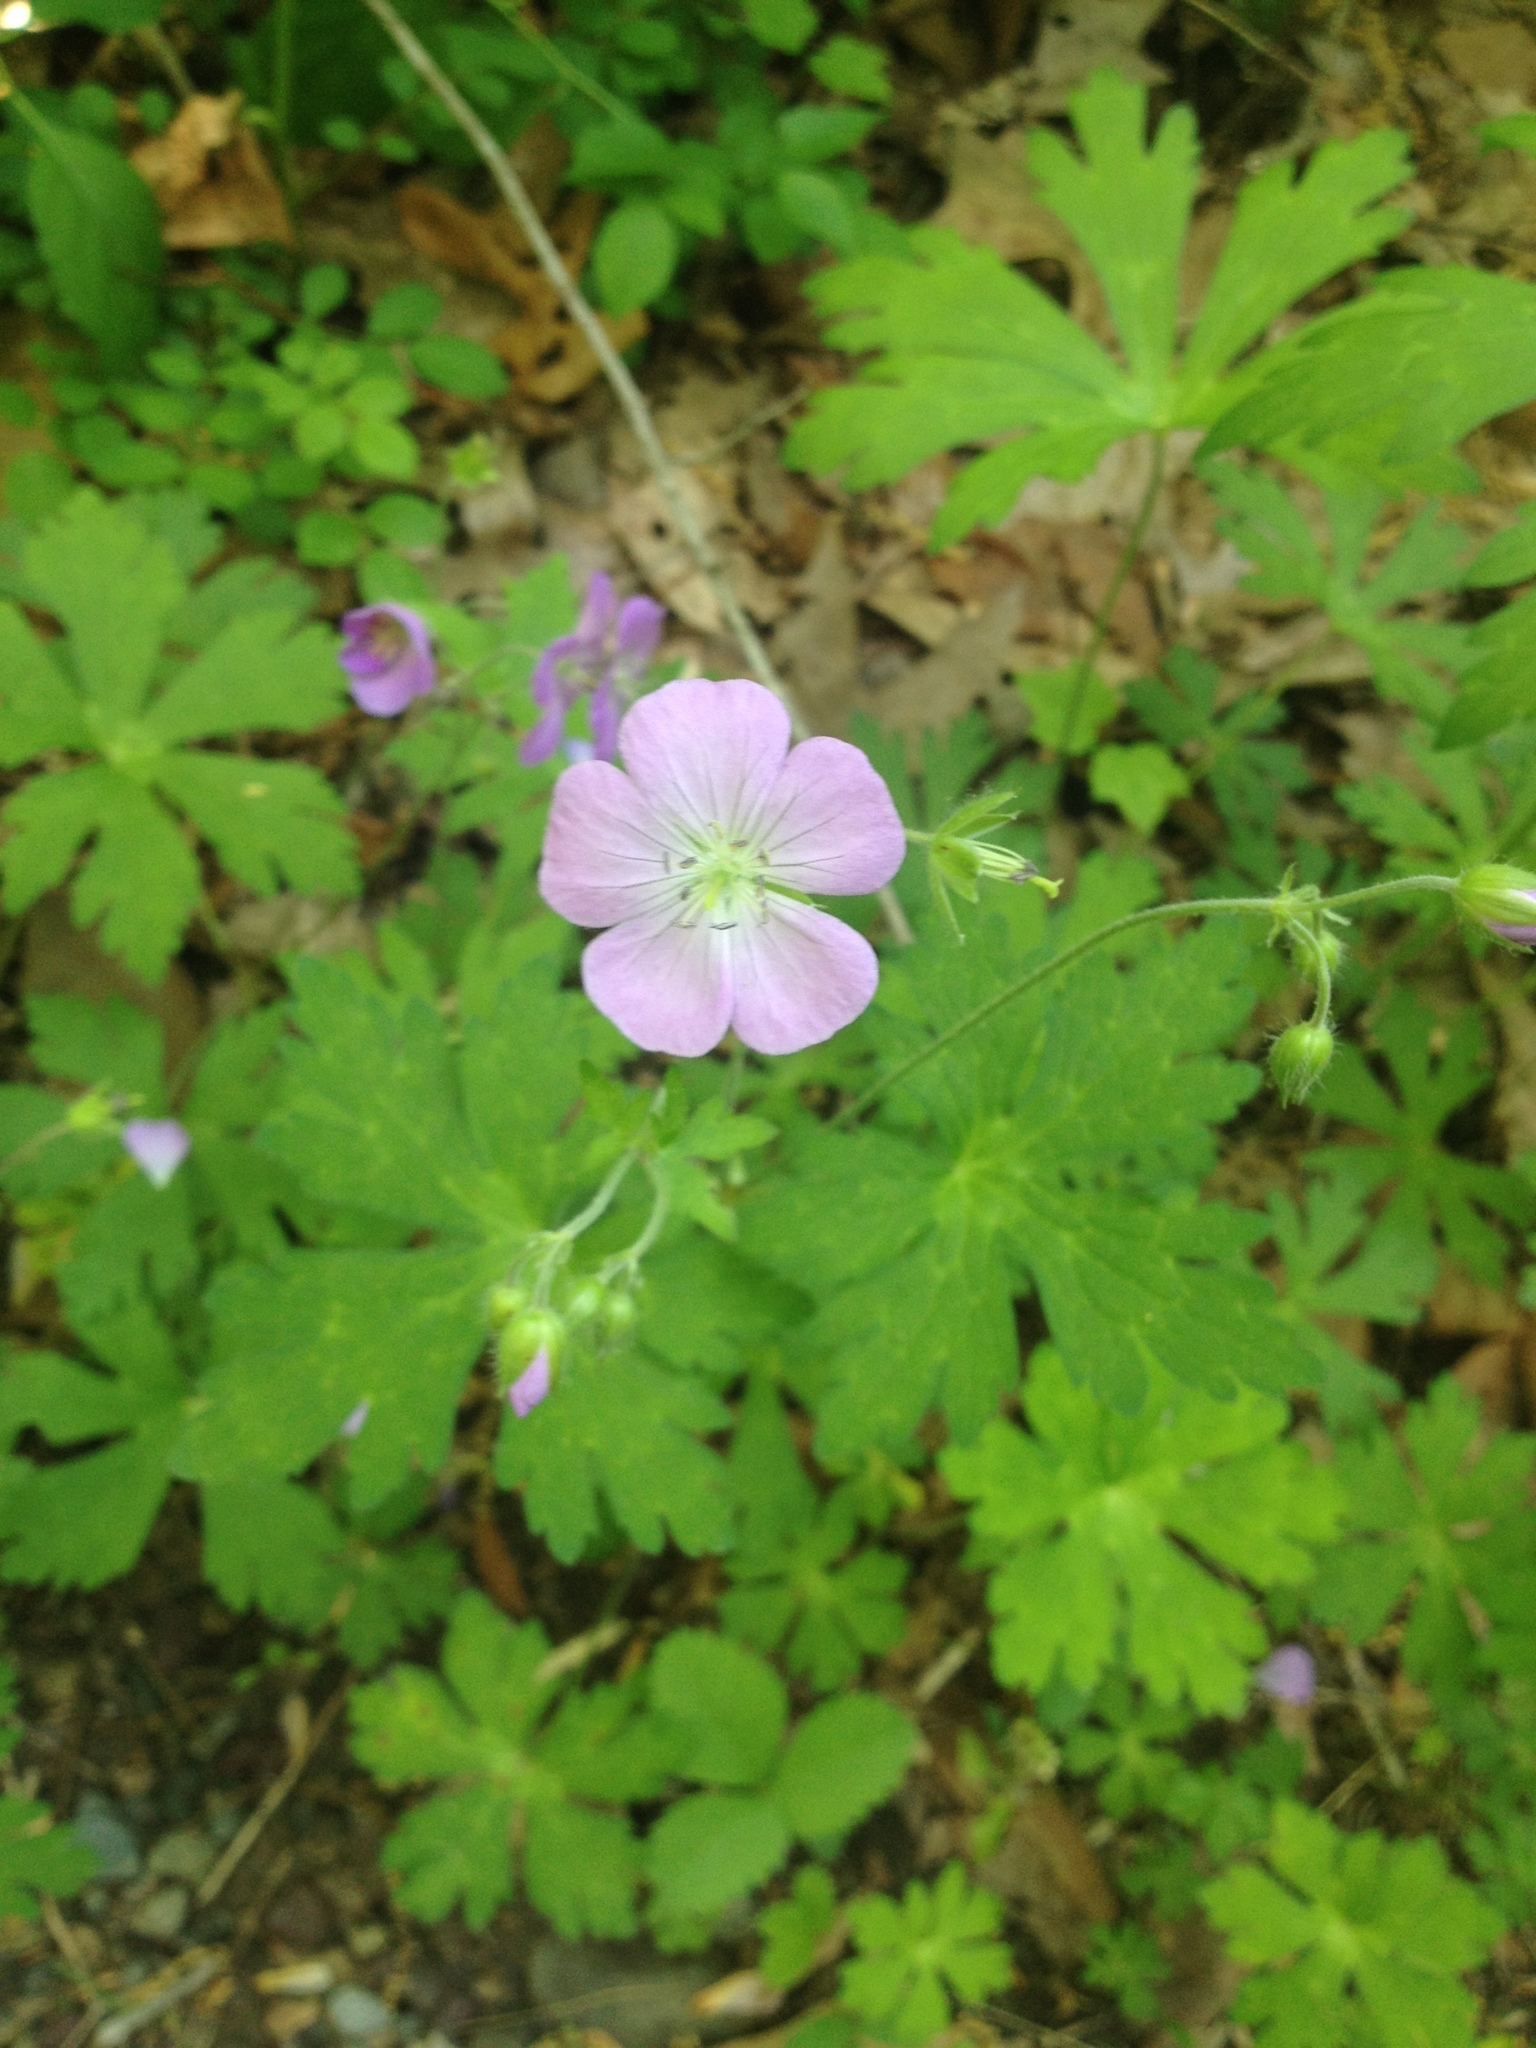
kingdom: Plantae
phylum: Tracheophyta
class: Magnoliopsida
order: Geraniales
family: Geraniaceae
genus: Geranium
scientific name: Geranium maculatum
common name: Spotted geranium
